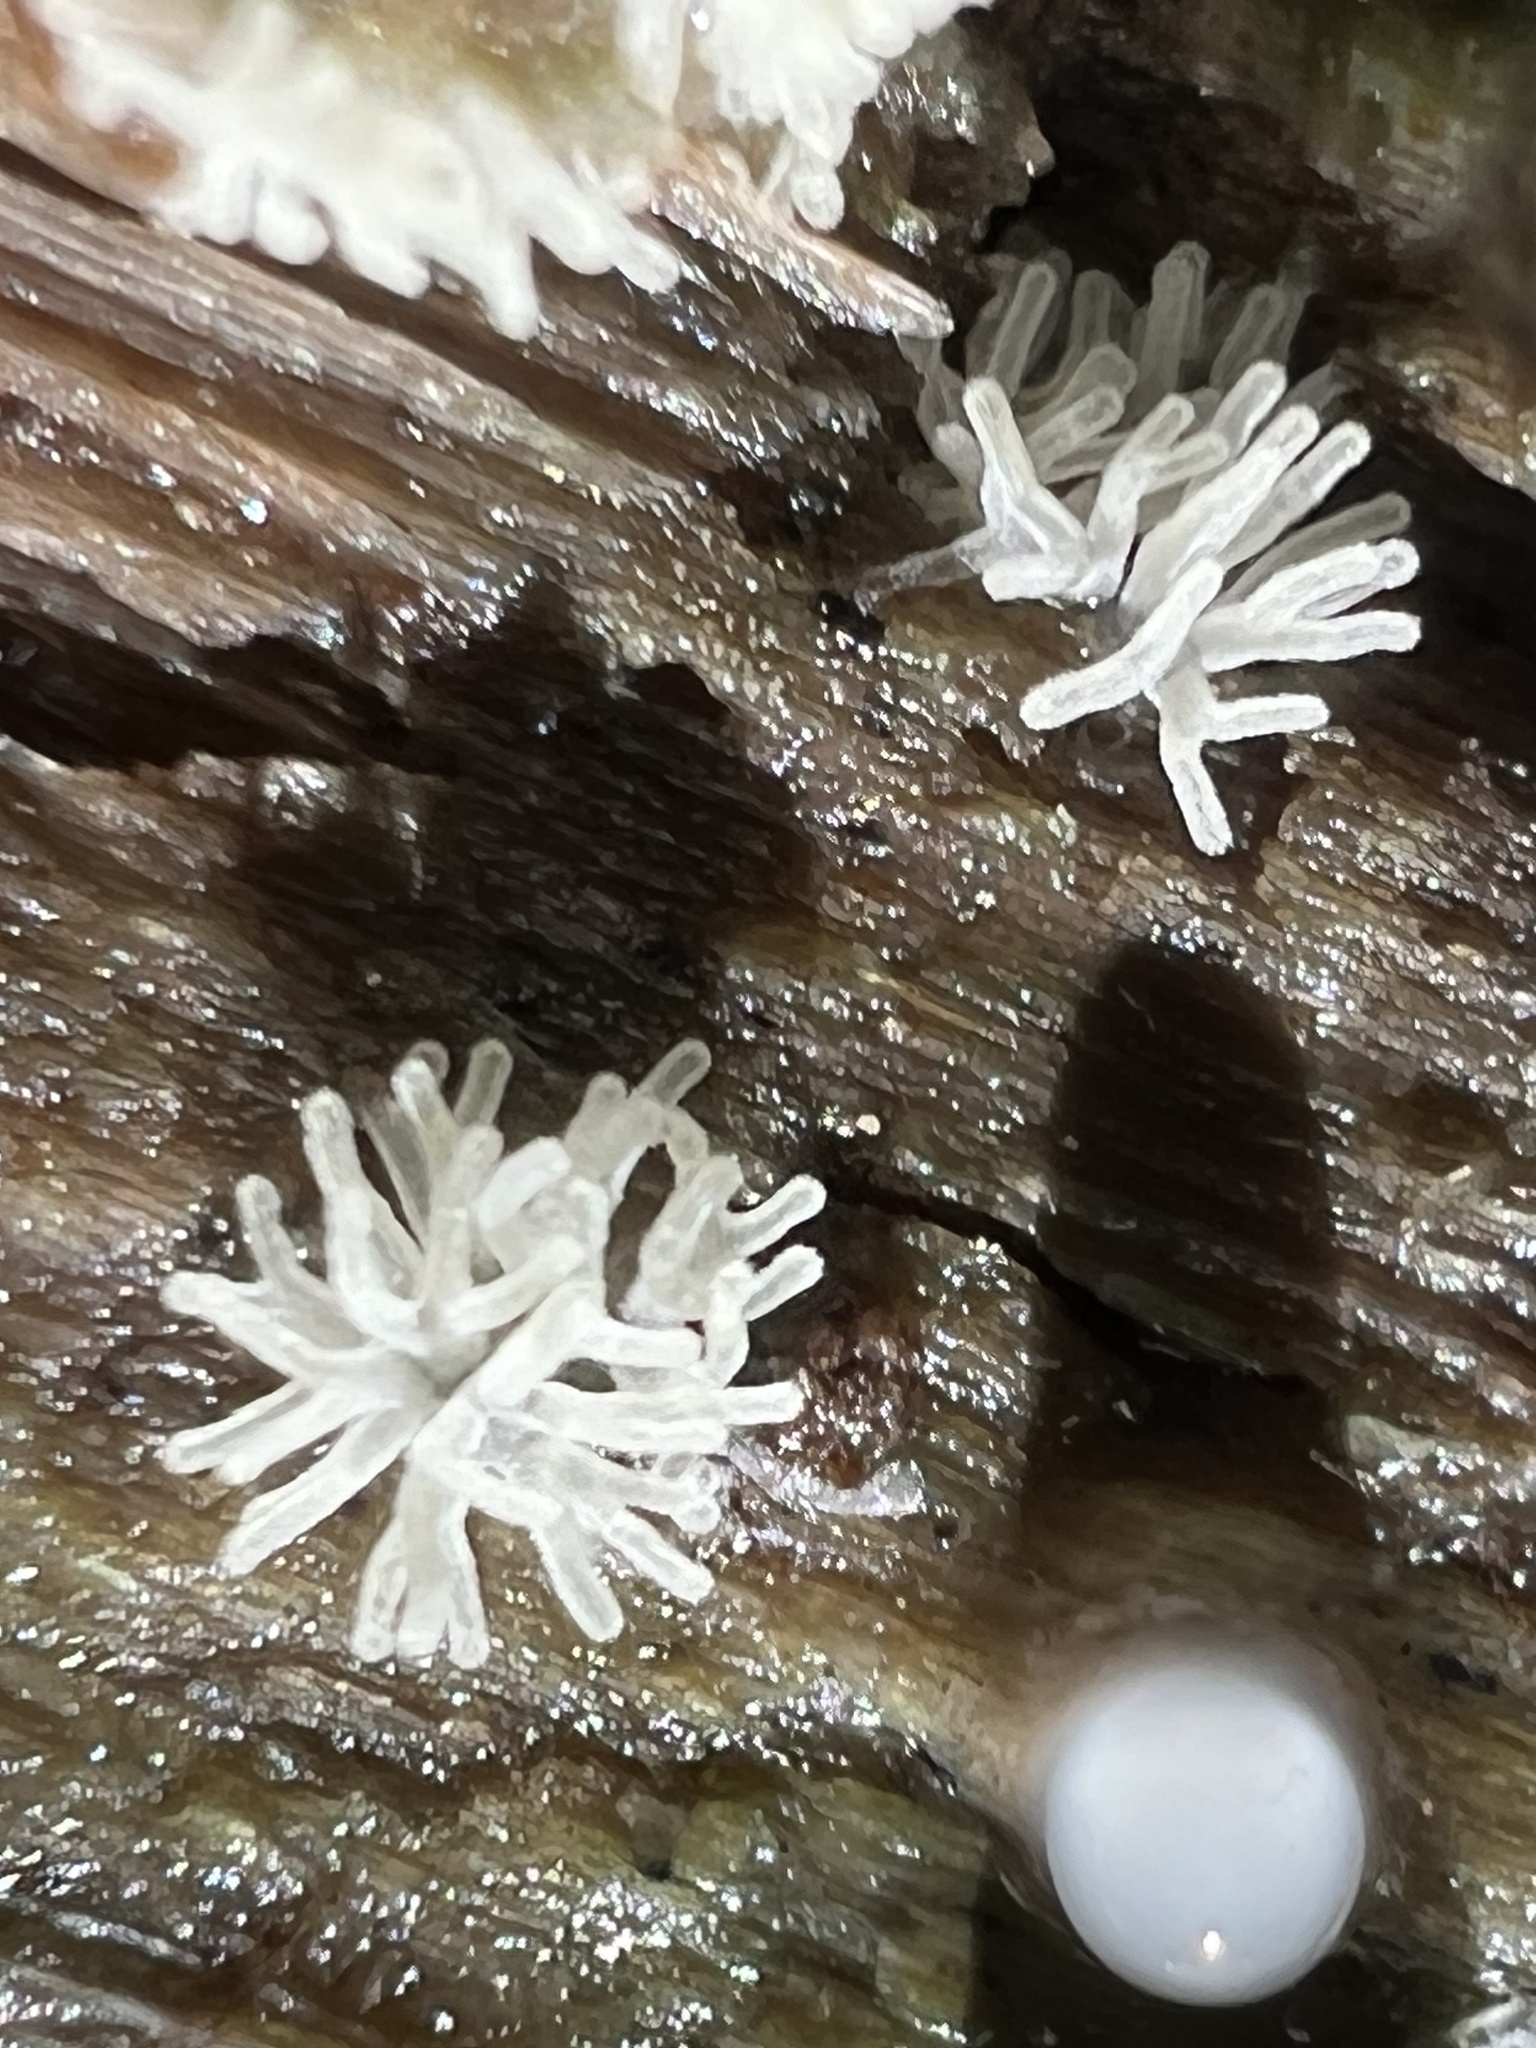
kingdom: Protozoa
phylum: Mycetozoa
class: Protosteliomycetes
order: Ceratiomyxales
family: Ceratiomyxaceae
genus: Ceratiomyxa
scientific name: Ceratiomyxa fruticulosa
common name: Honeycomb coral slime mold
